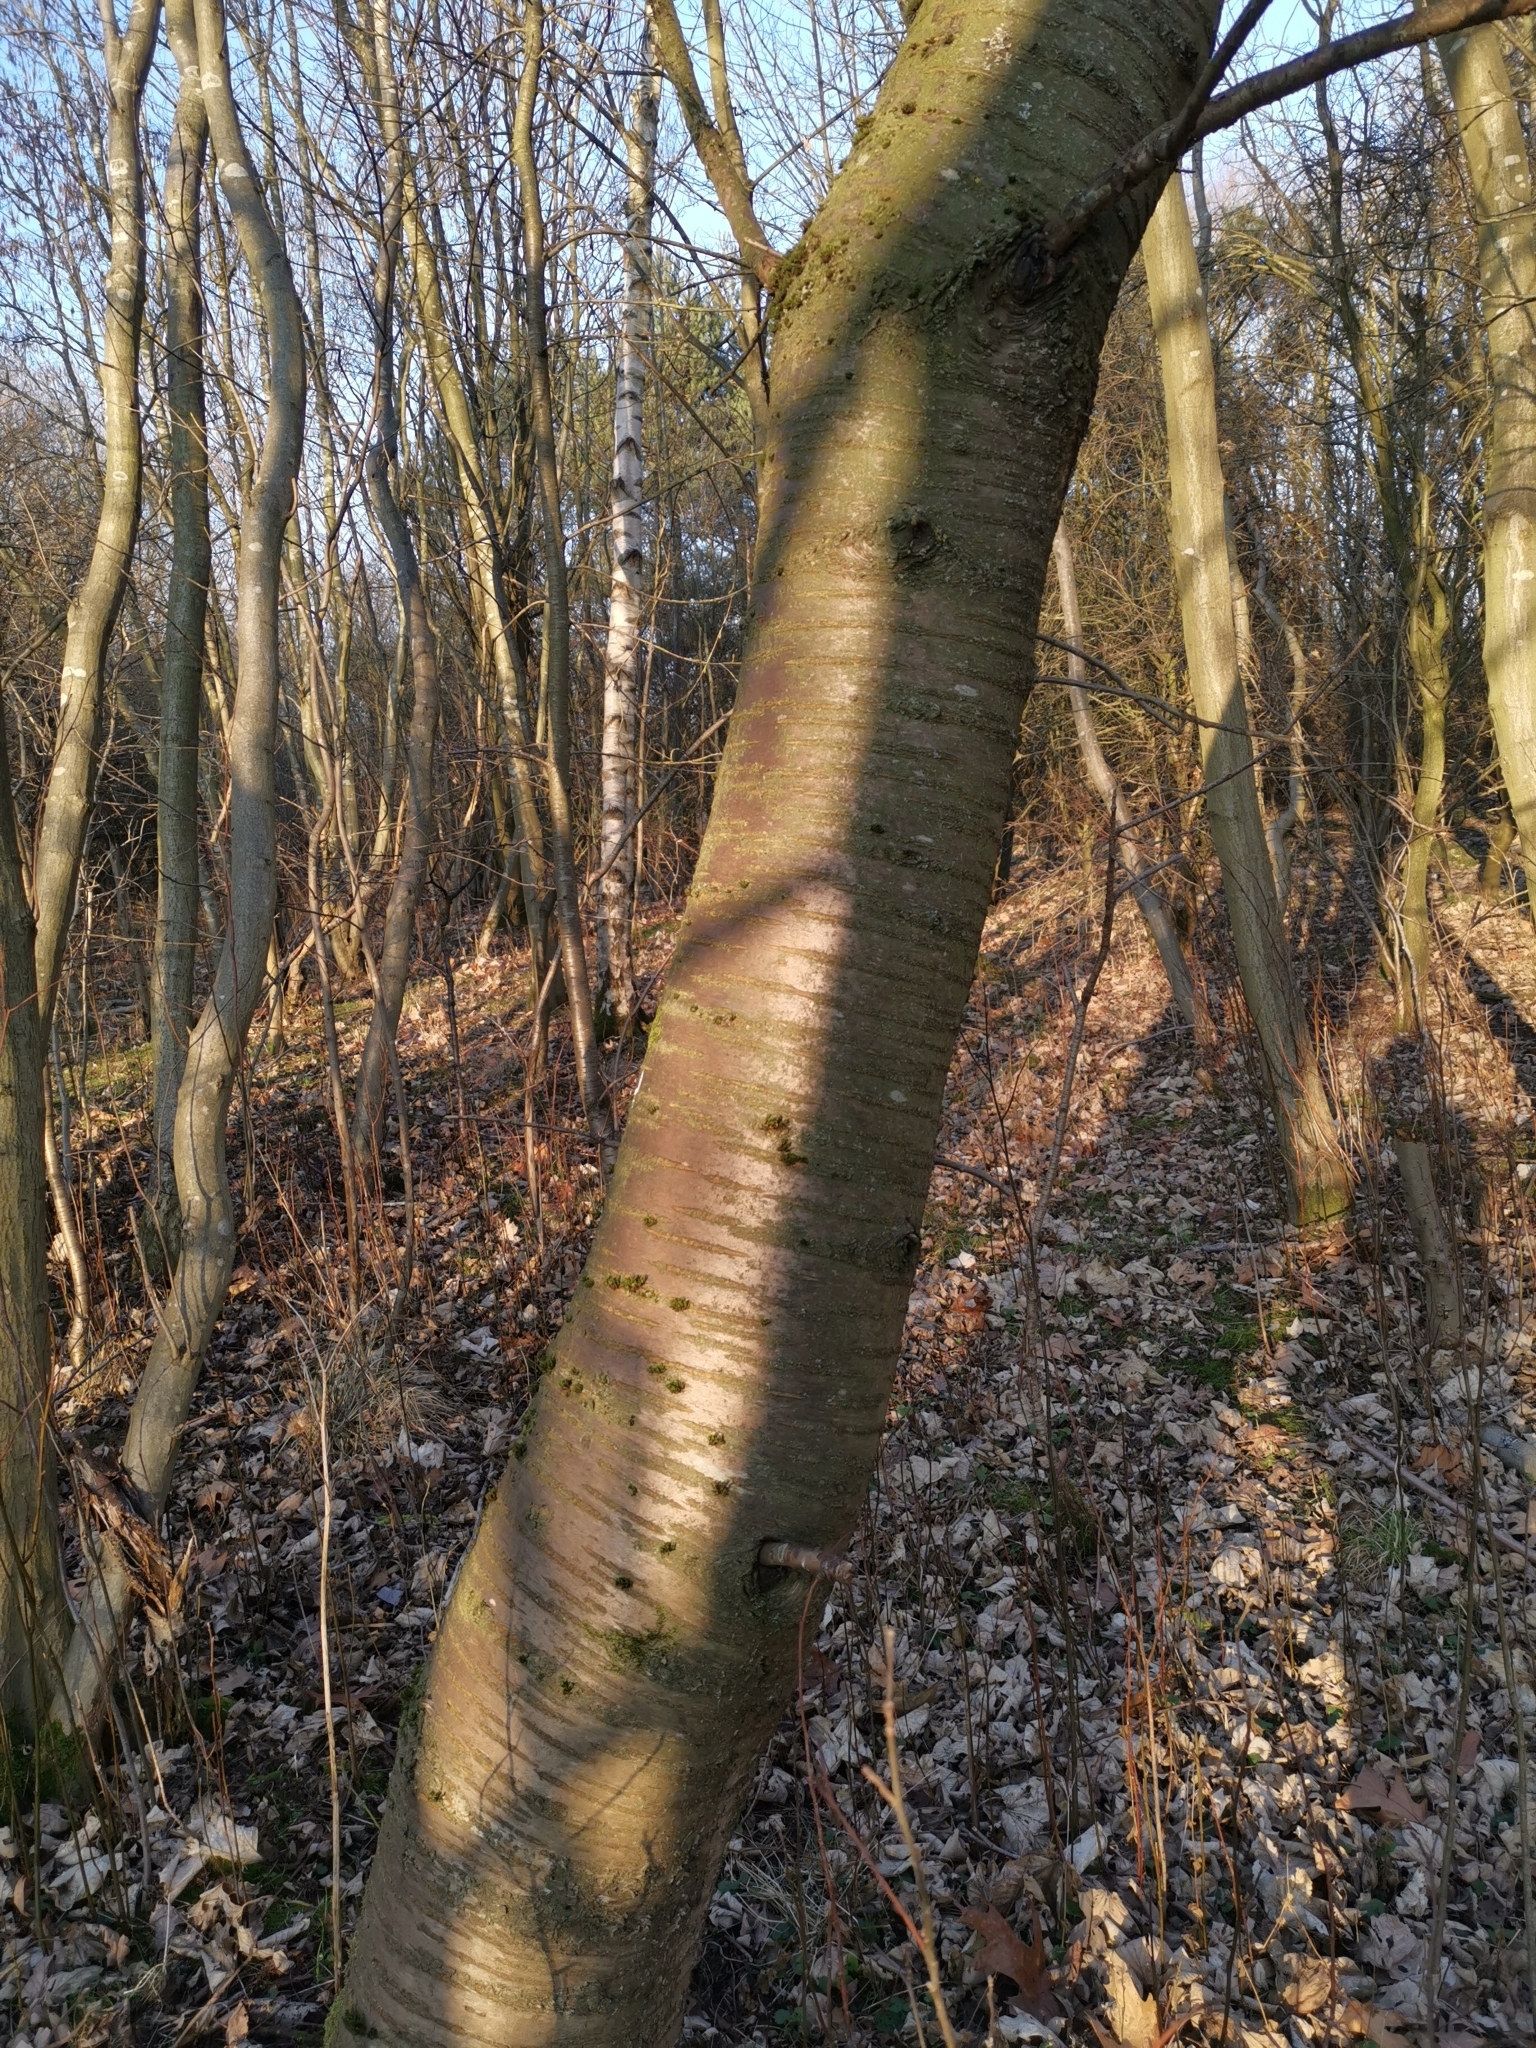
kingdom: Plantae
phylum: Tracheophyta
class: Magnoliopsida
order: Rosales
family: Rosaceae
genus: Prunus
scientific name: Prunus avium
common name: Sweet cherry
